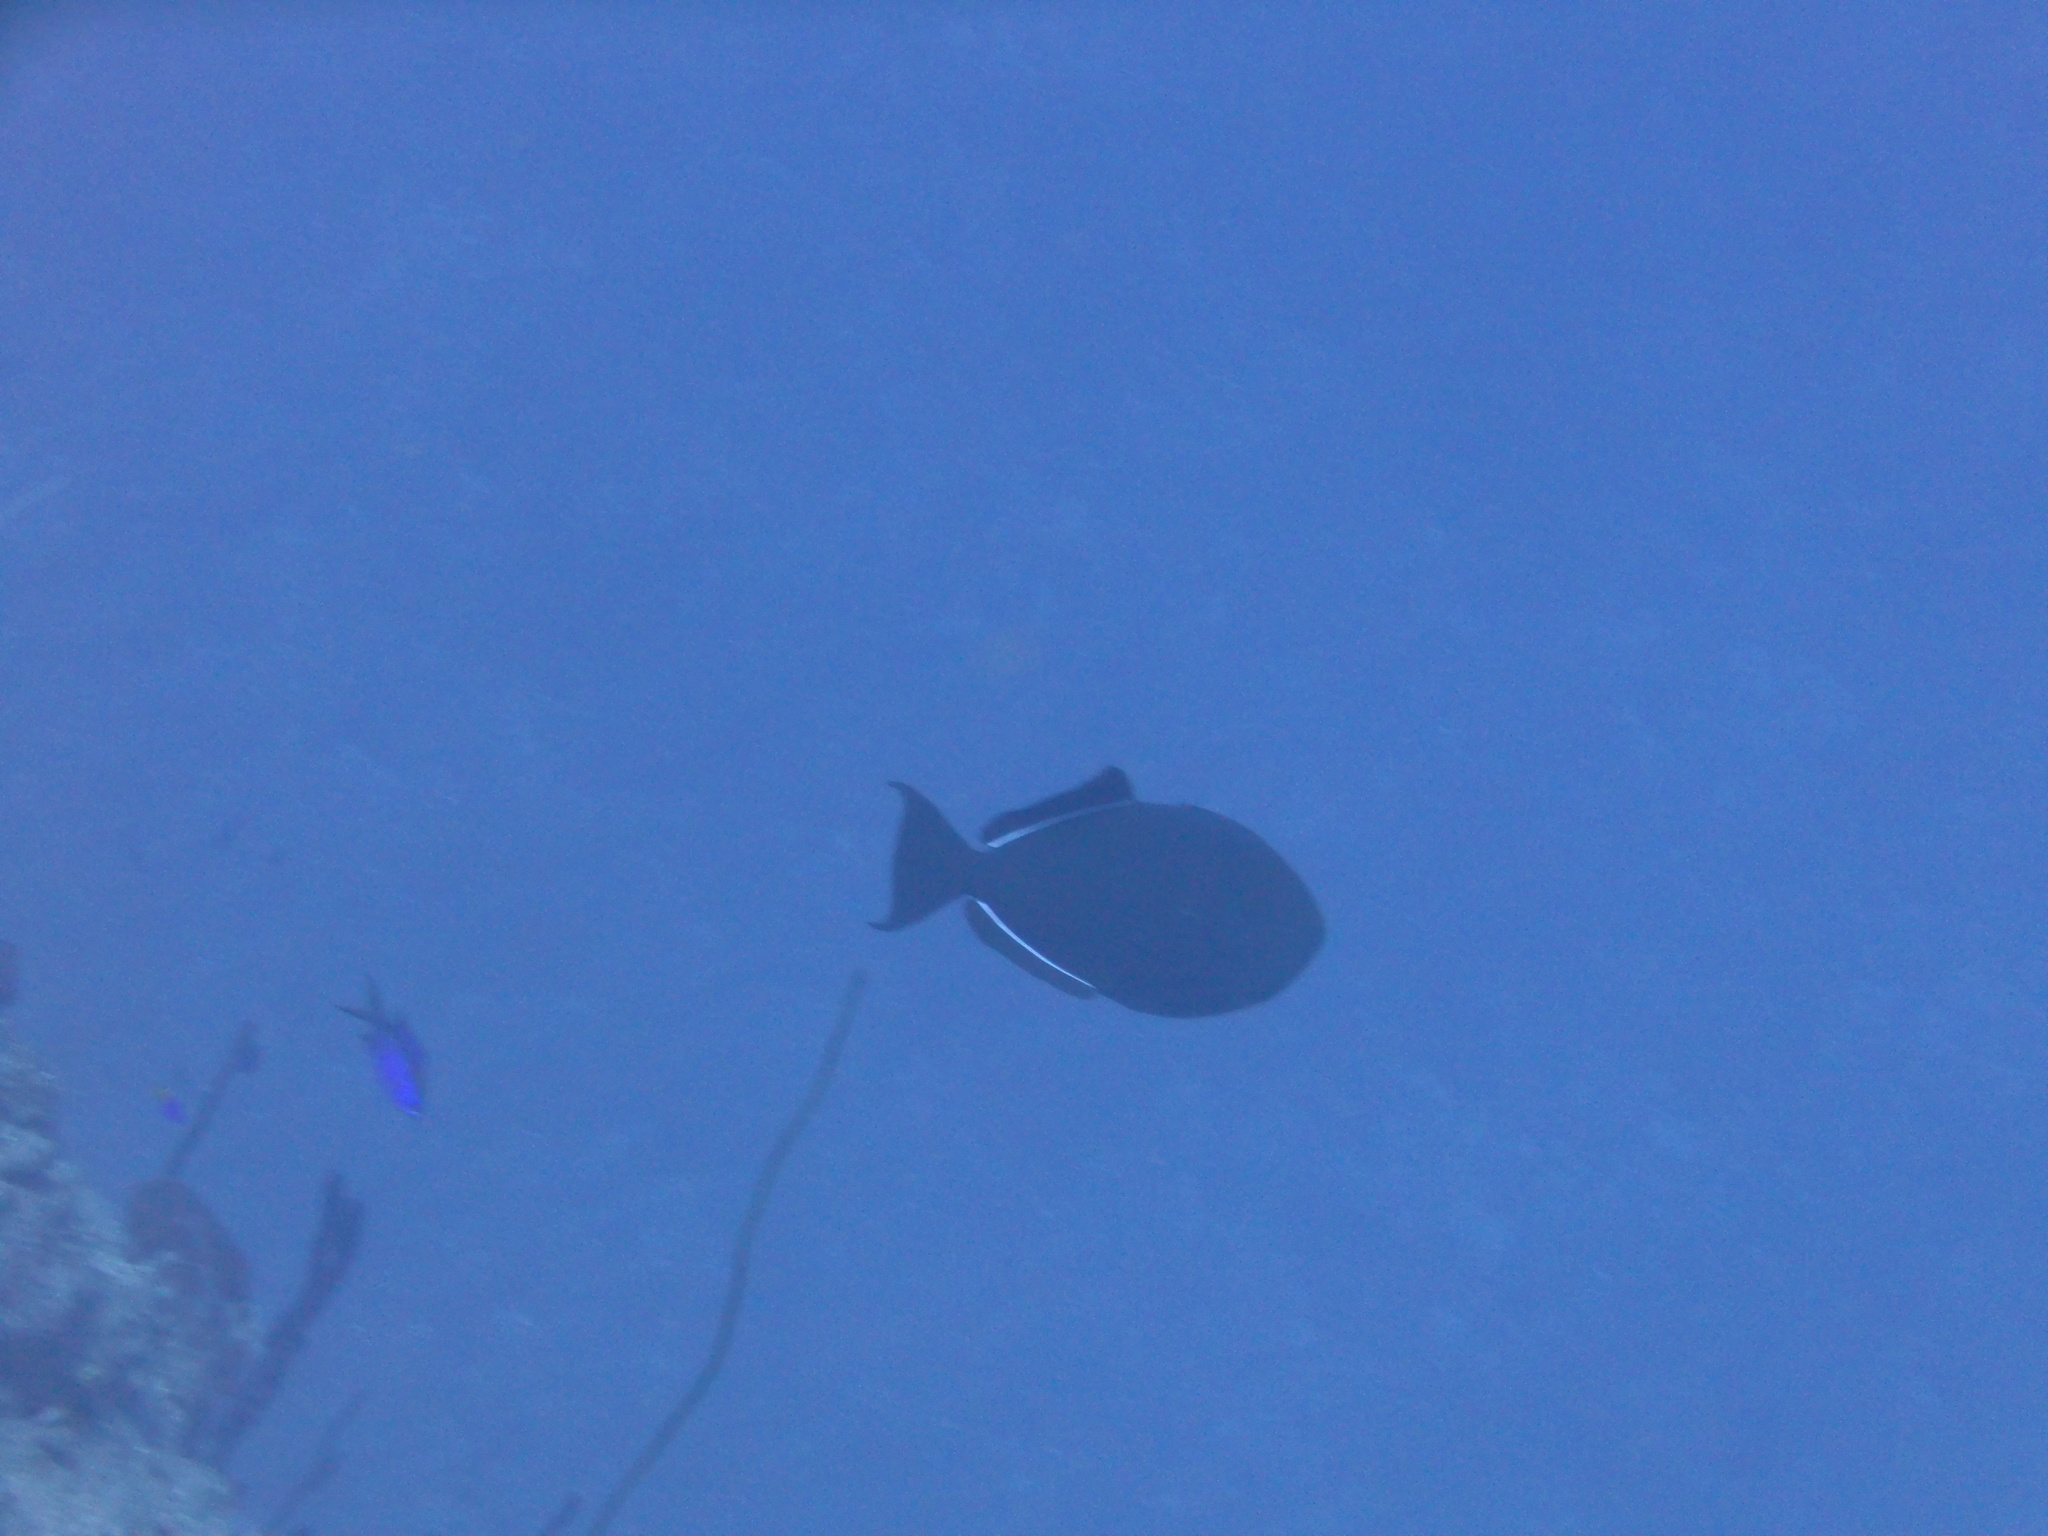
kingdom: Animalia
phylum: Chordata
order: Tetraodontiformes
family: Balistidae
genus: Melichthys
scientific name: Melichthys niger
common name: Black durgon
